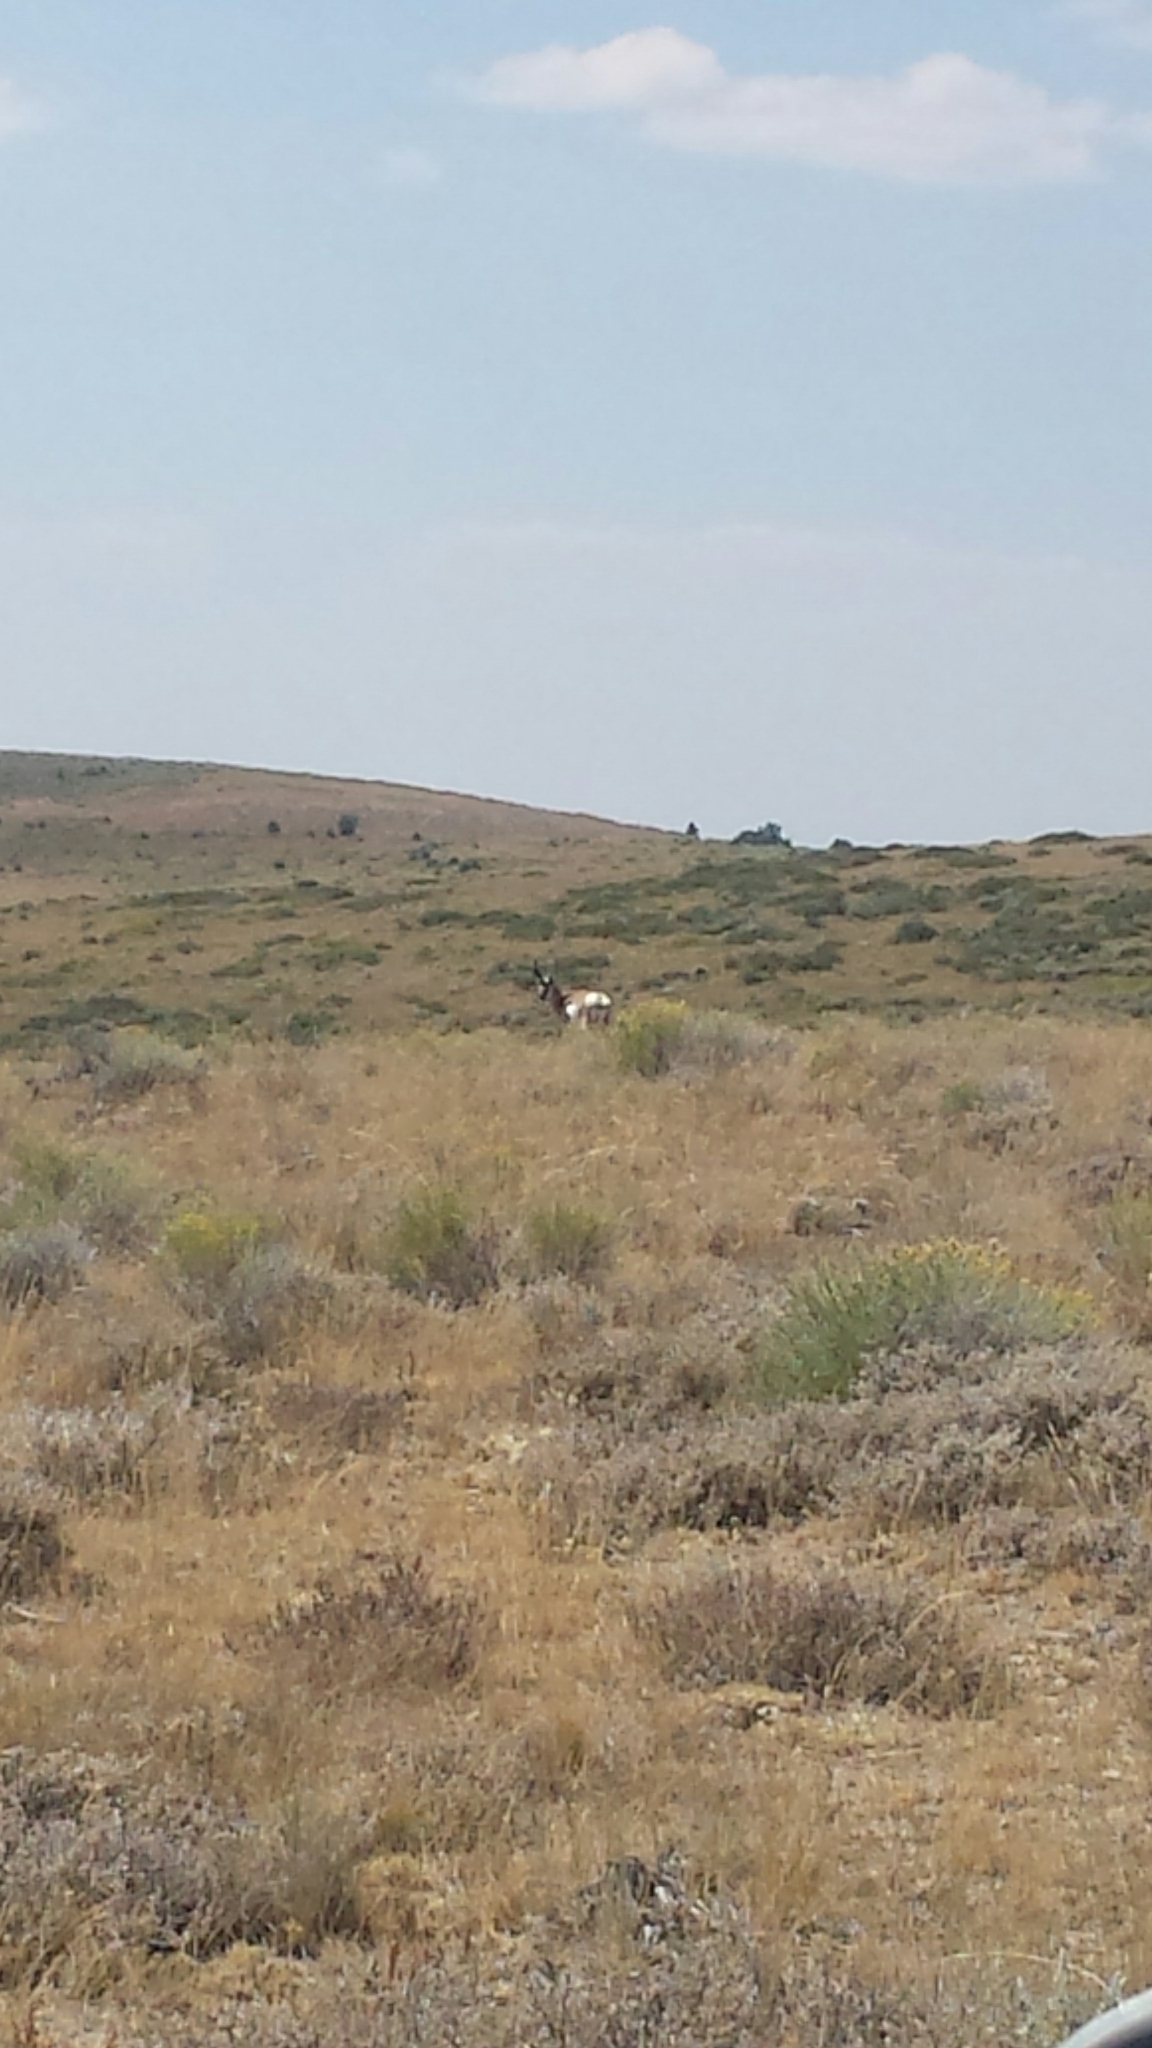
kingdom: Animalia
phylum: Chordata
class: Mammalia
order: Artiodactyla
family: Antilocapridae
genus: Antilocapra
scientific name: Antilocapra americana
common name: Pronghorn
